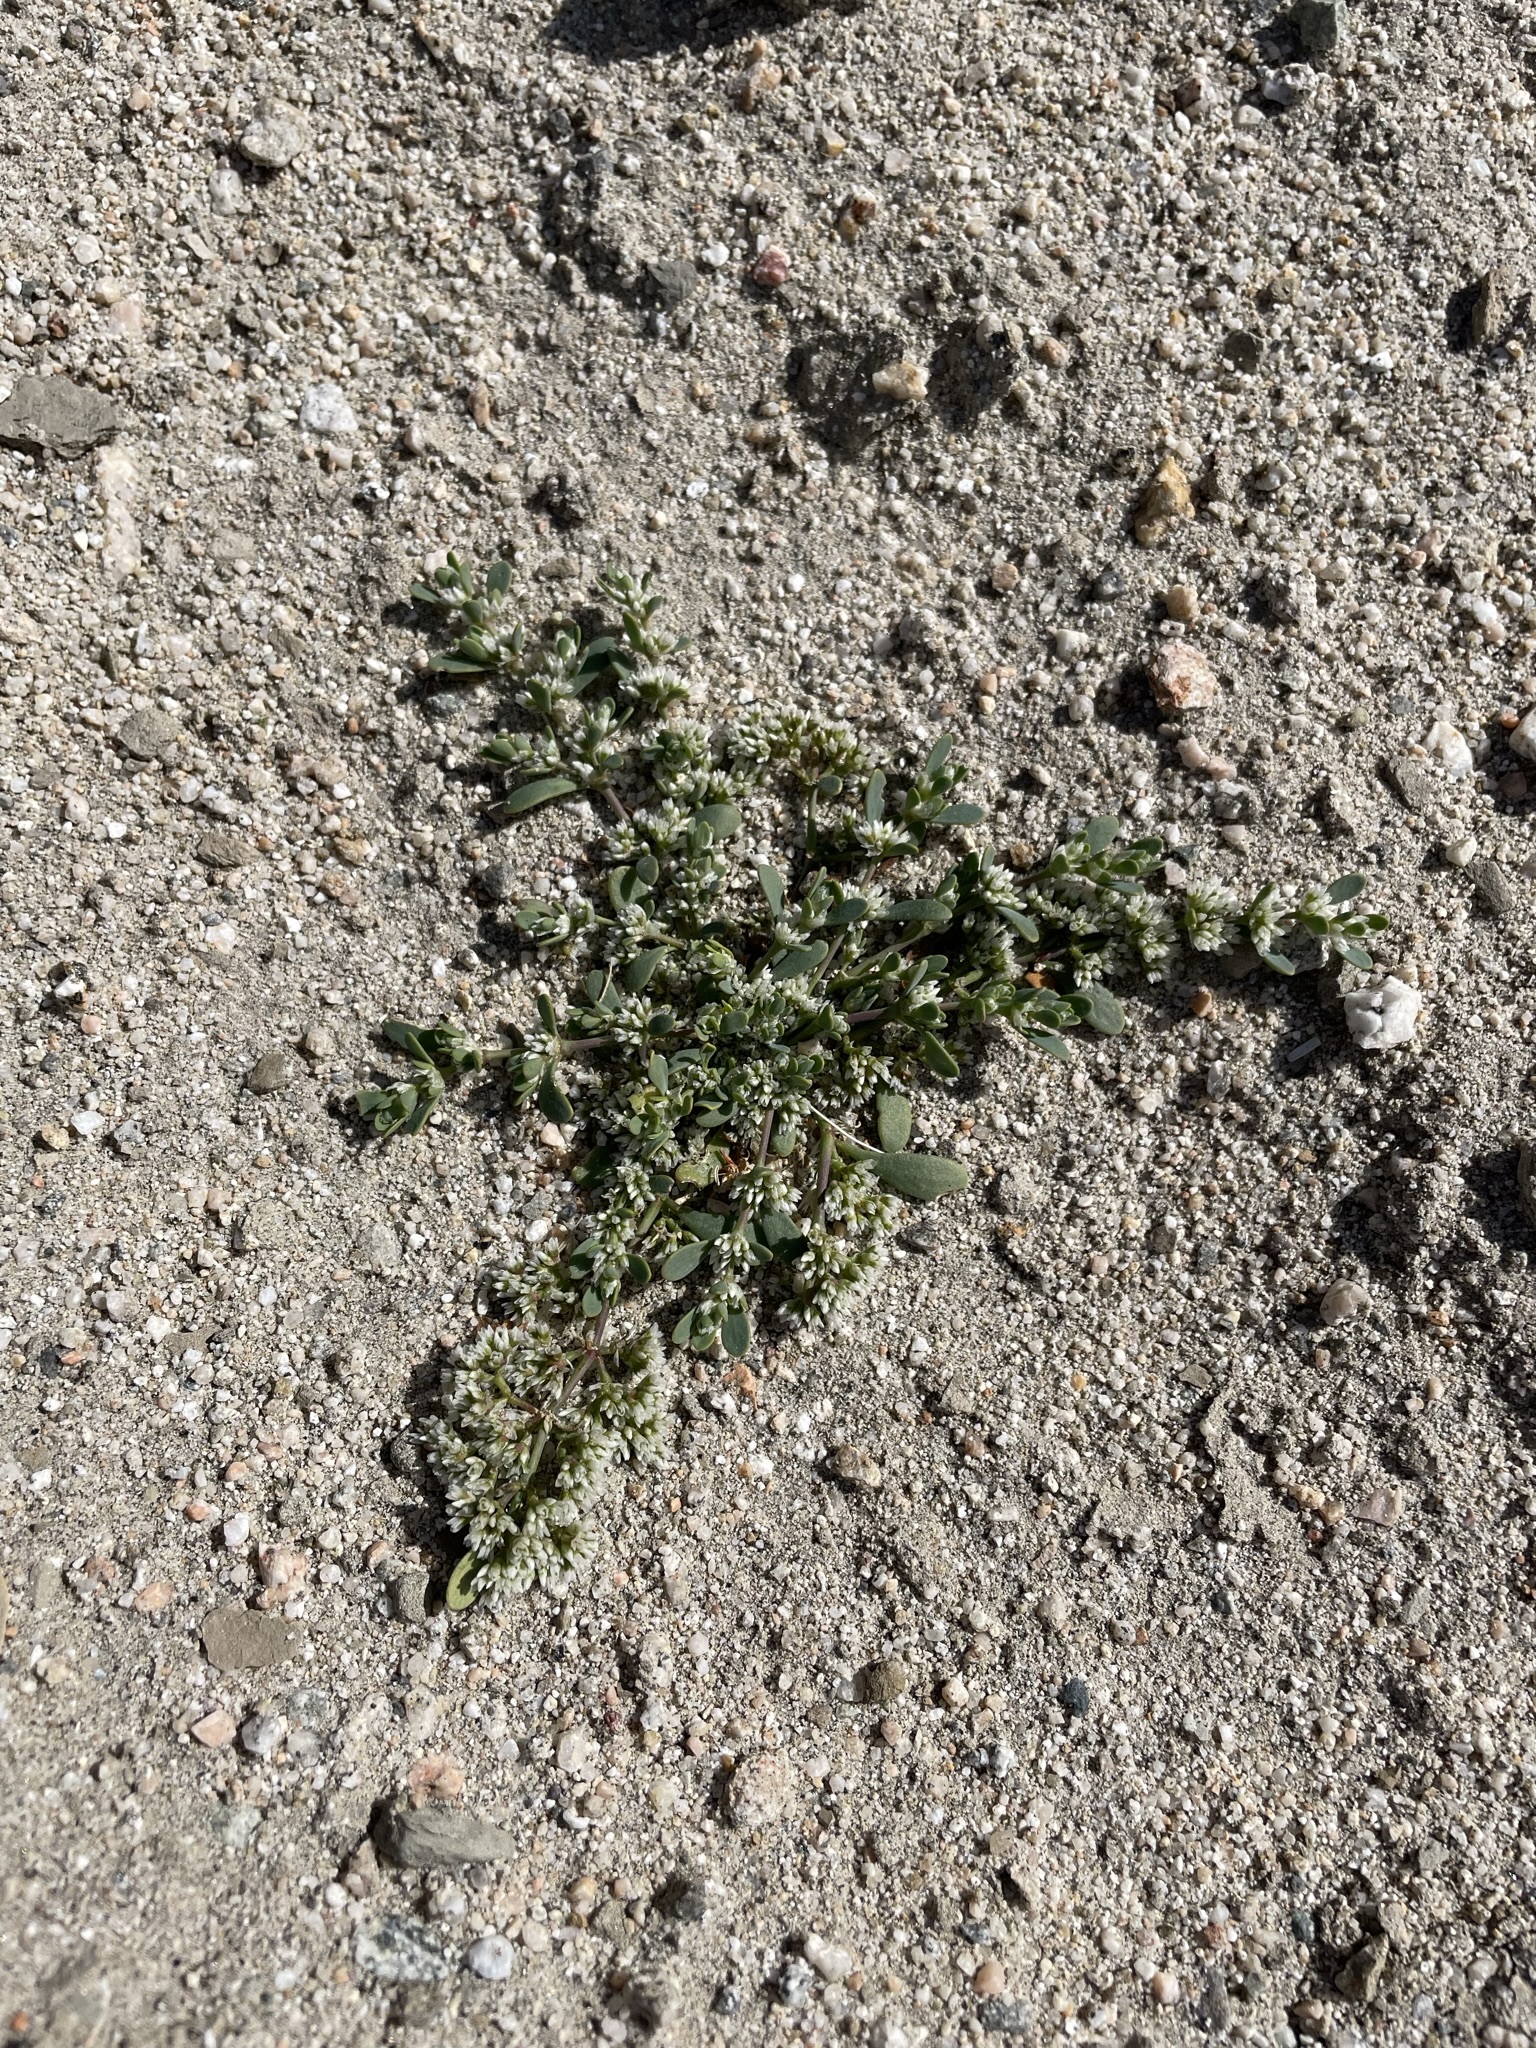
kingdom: Plantae
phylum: Tracheophyta
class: Magnoliopsida
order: Caryophyllales
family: Caryophyllaceae
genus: Achyronychia
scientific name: Achyronychia cooperi
